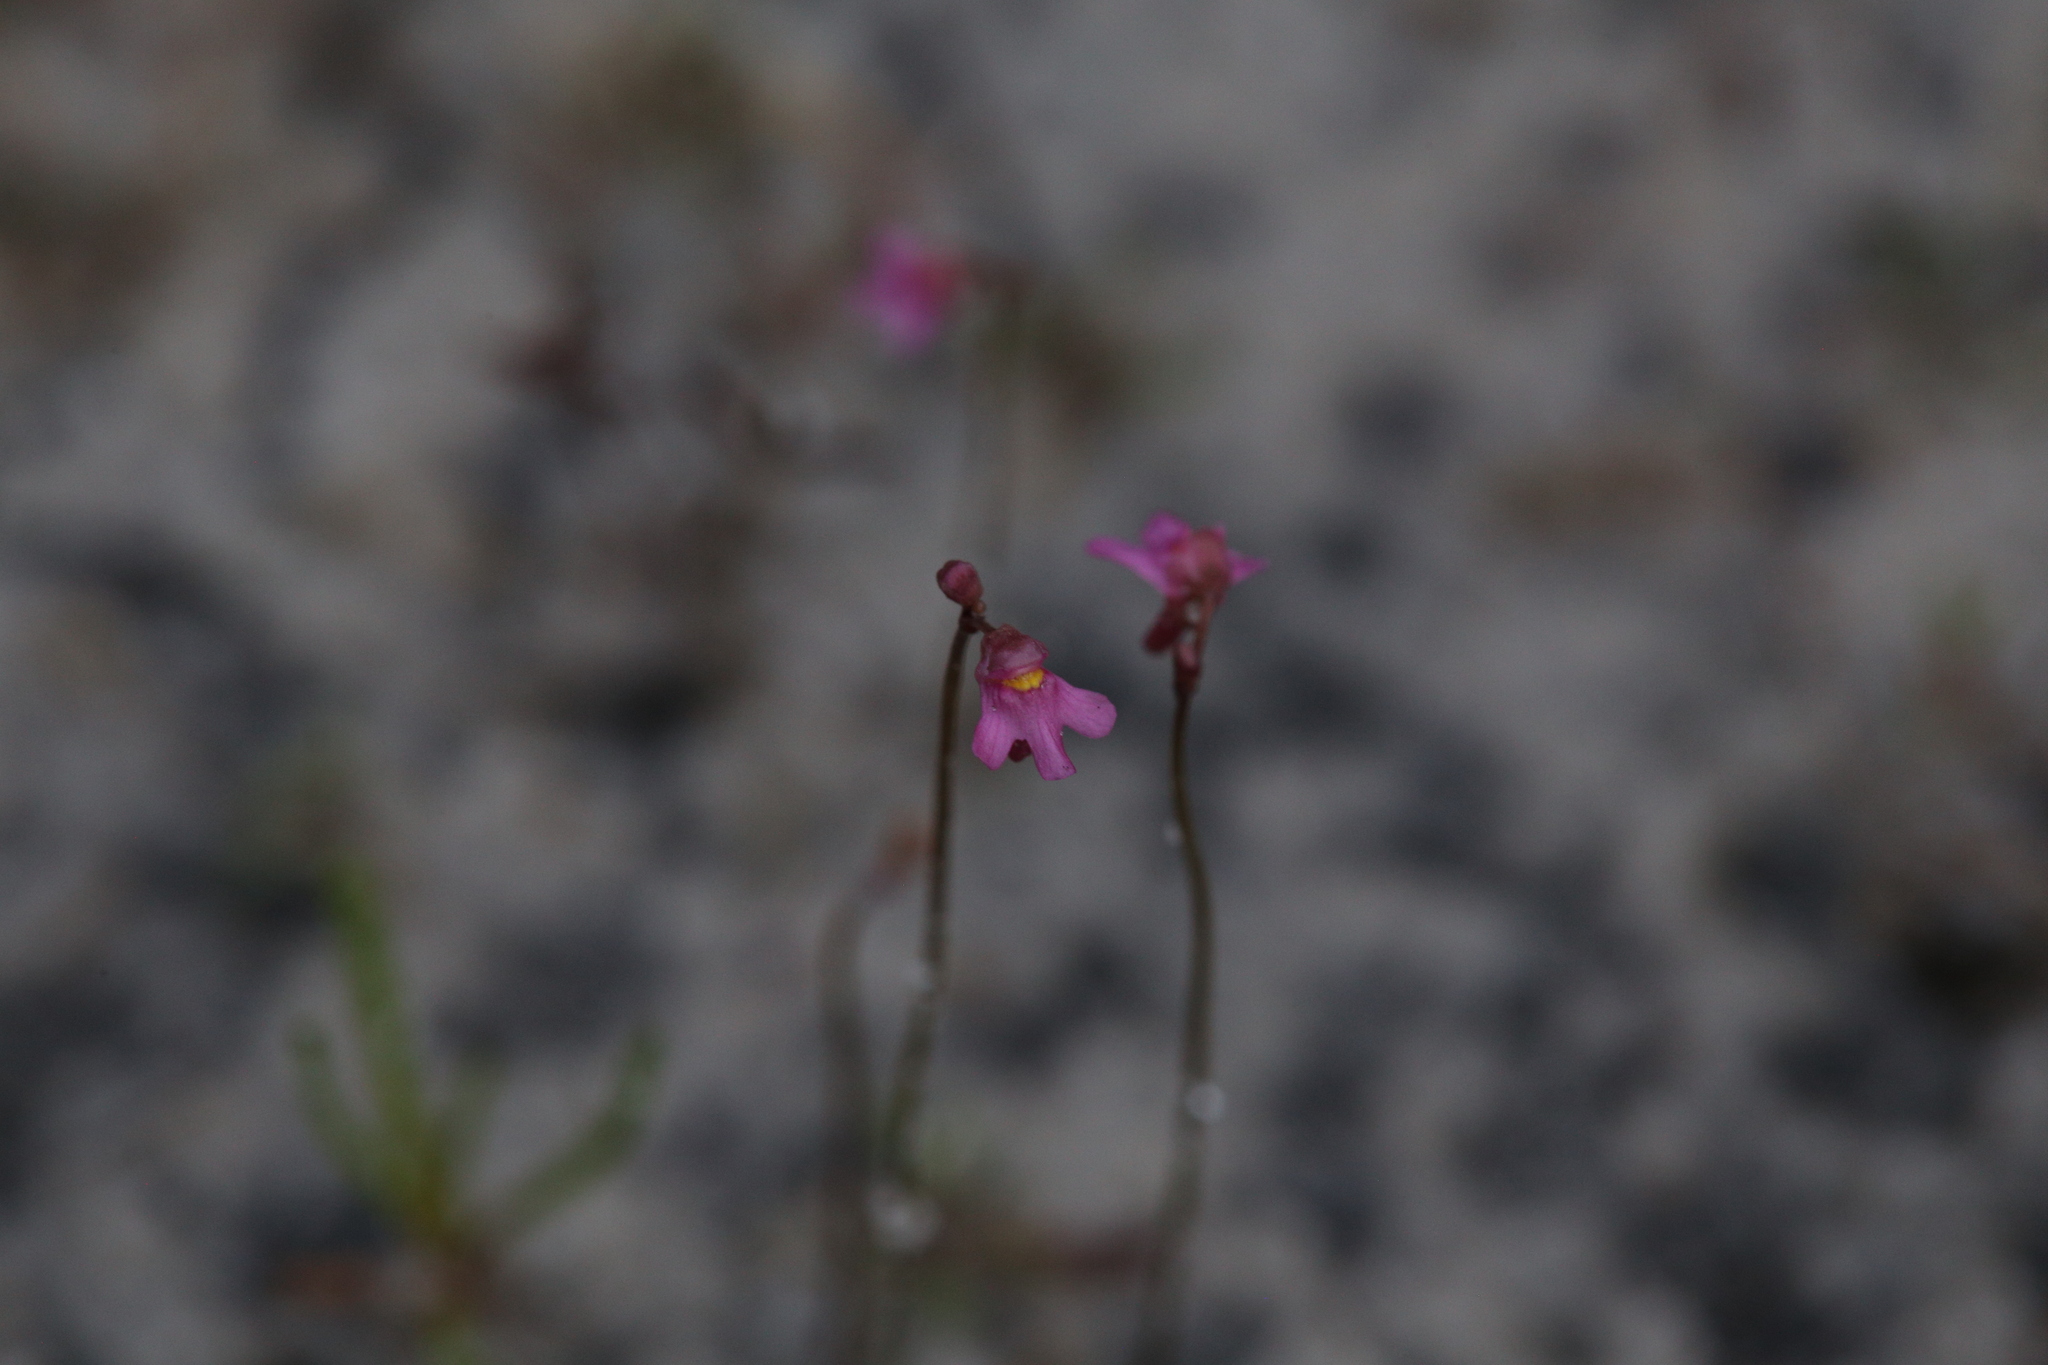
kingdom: Plantae
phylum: Tracheophyta
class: Magnoliopsida
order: Lamiales
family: Lentibulariaceae
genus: Utricularia
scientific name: Utricularia tenella
